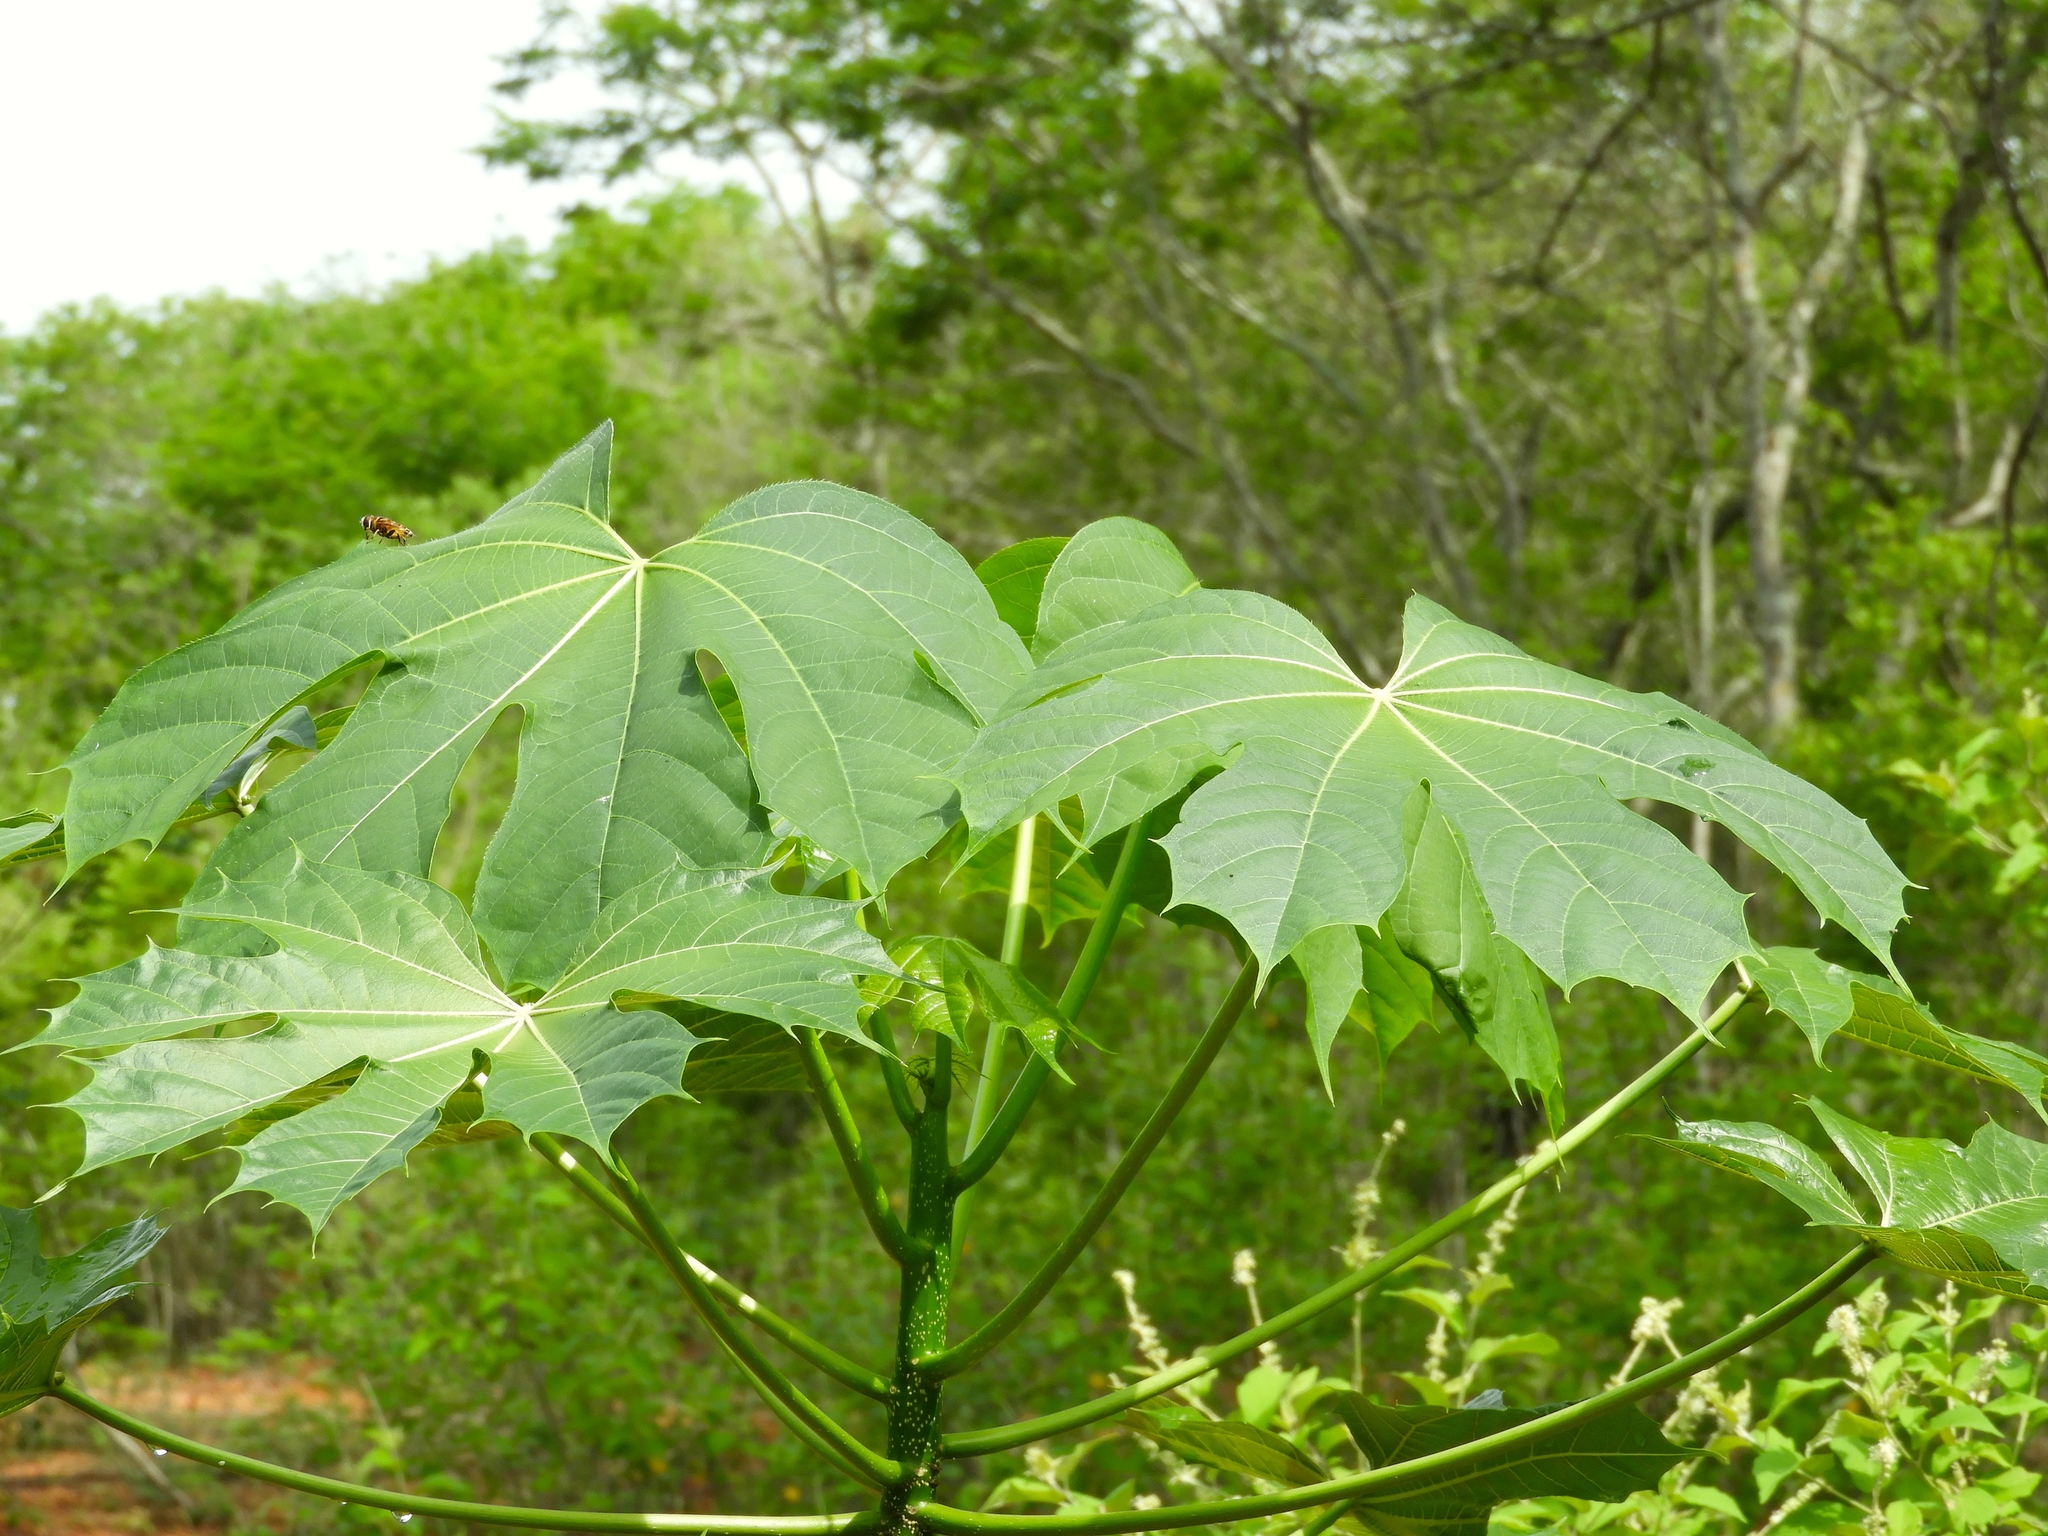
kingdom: Plantae
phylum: Tracheophyta
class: Magnoliopsida
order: Malpighiales
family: Euphorbiaceae
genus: Cnidoscolus
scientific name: Cnidoscolus elasticus
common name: Chilte
